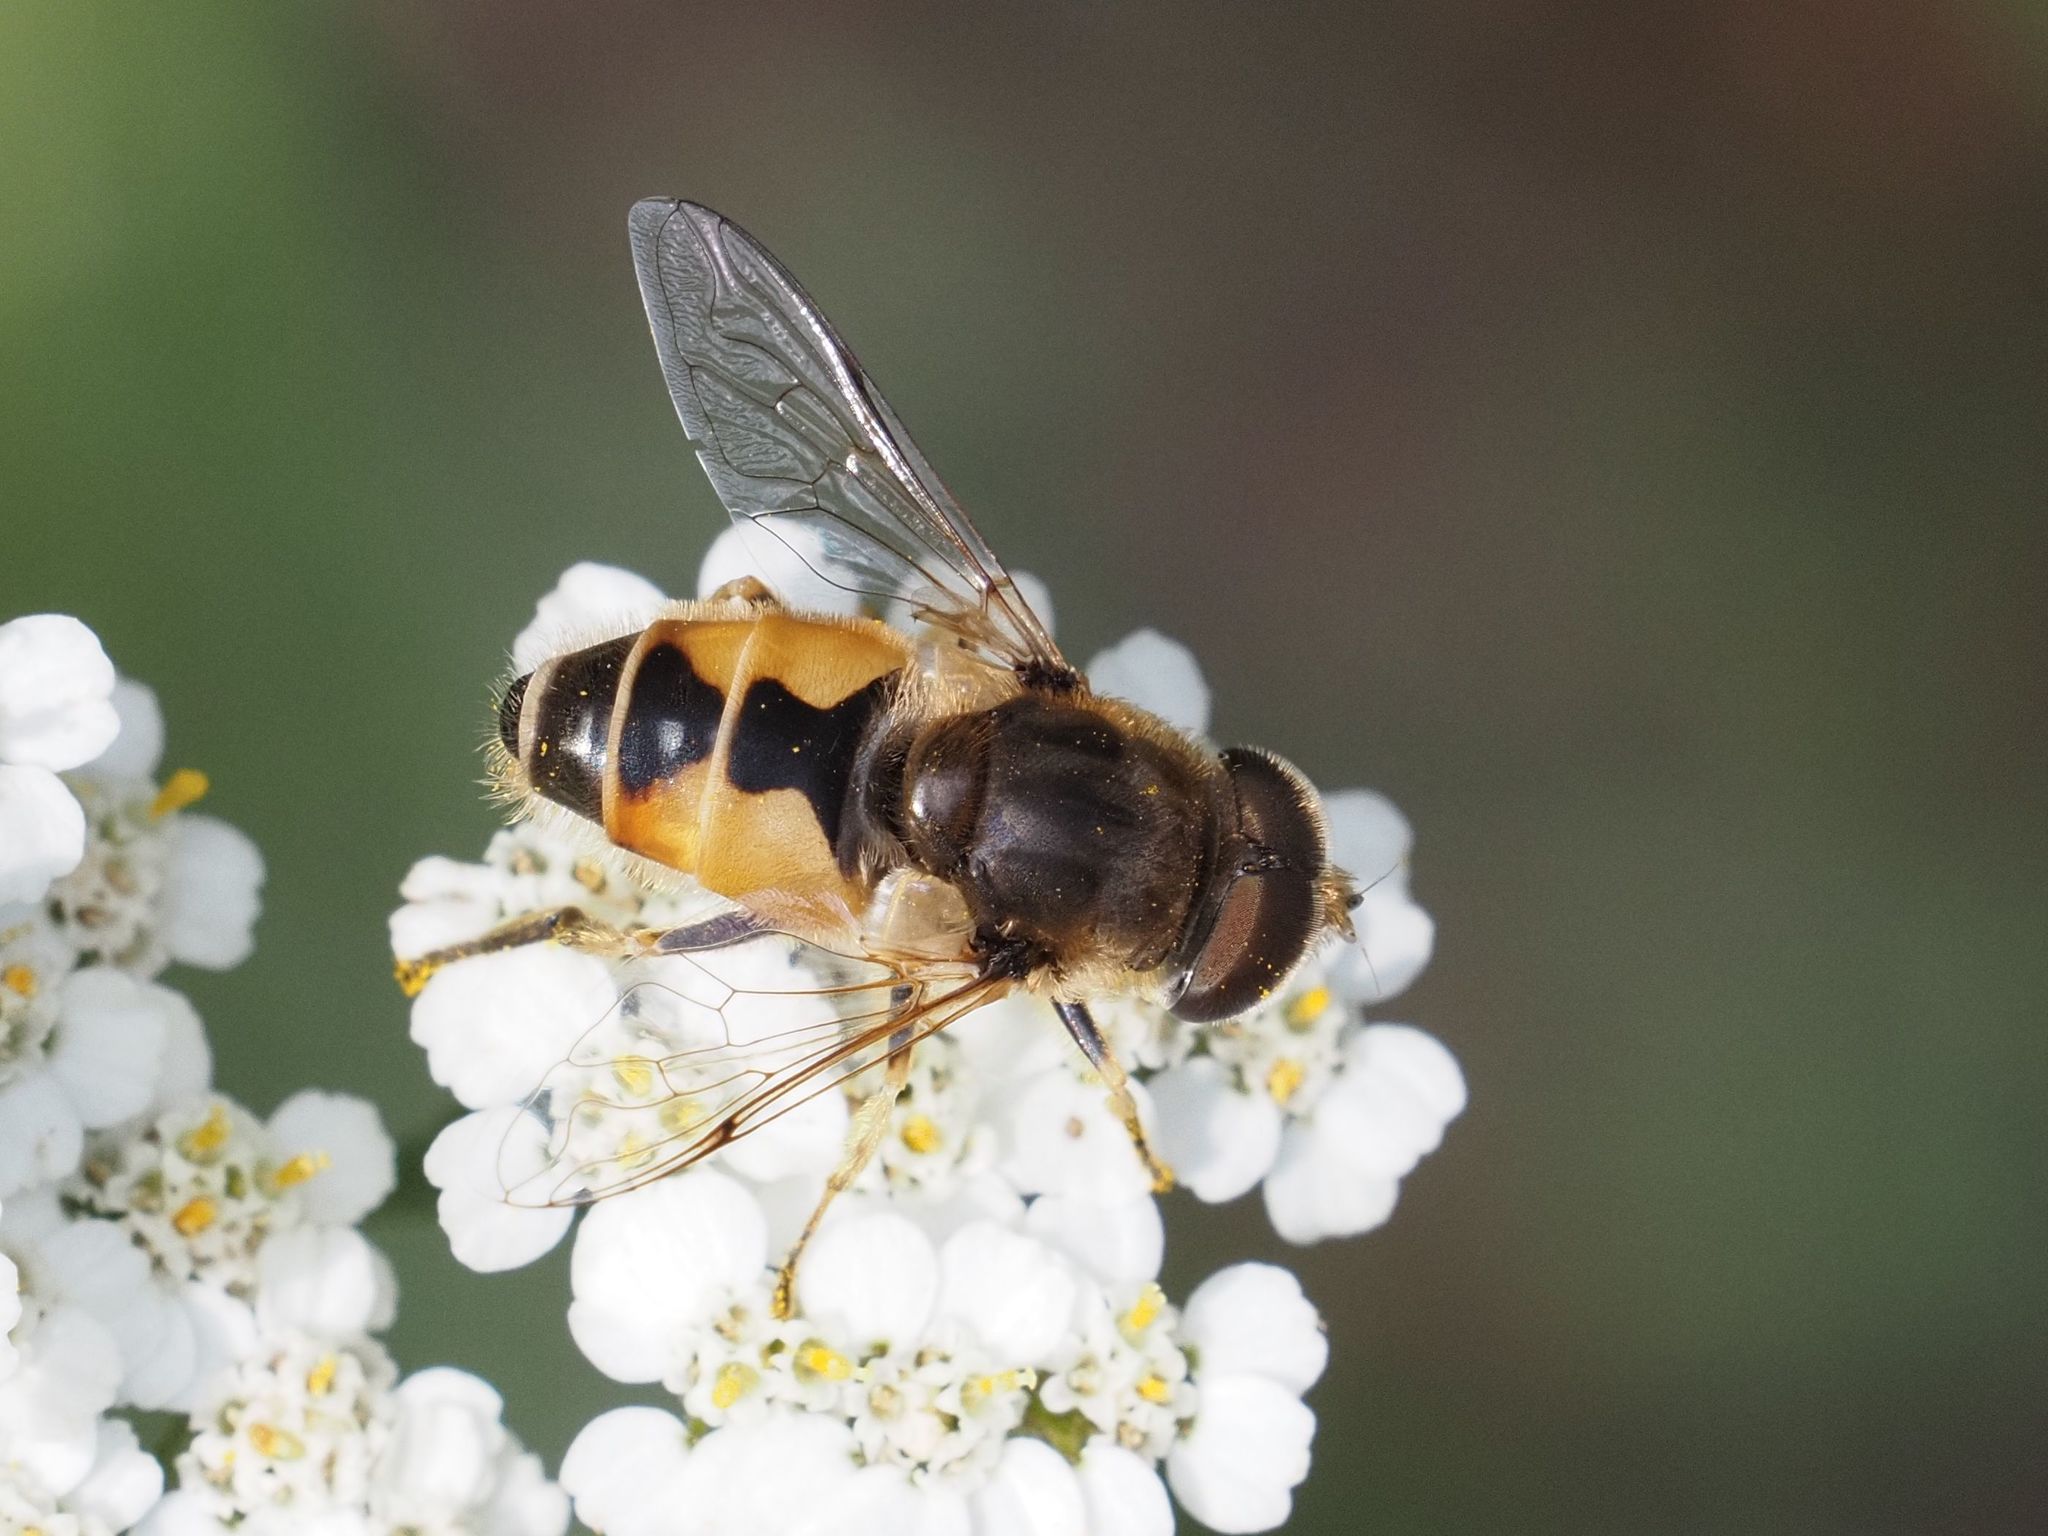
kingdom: Animalia
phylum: Arthropoda
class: Insecta
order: Diptera
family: Syrphidae
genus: Eristalis
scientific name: Eristalis arbustorum
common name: Hover fly
